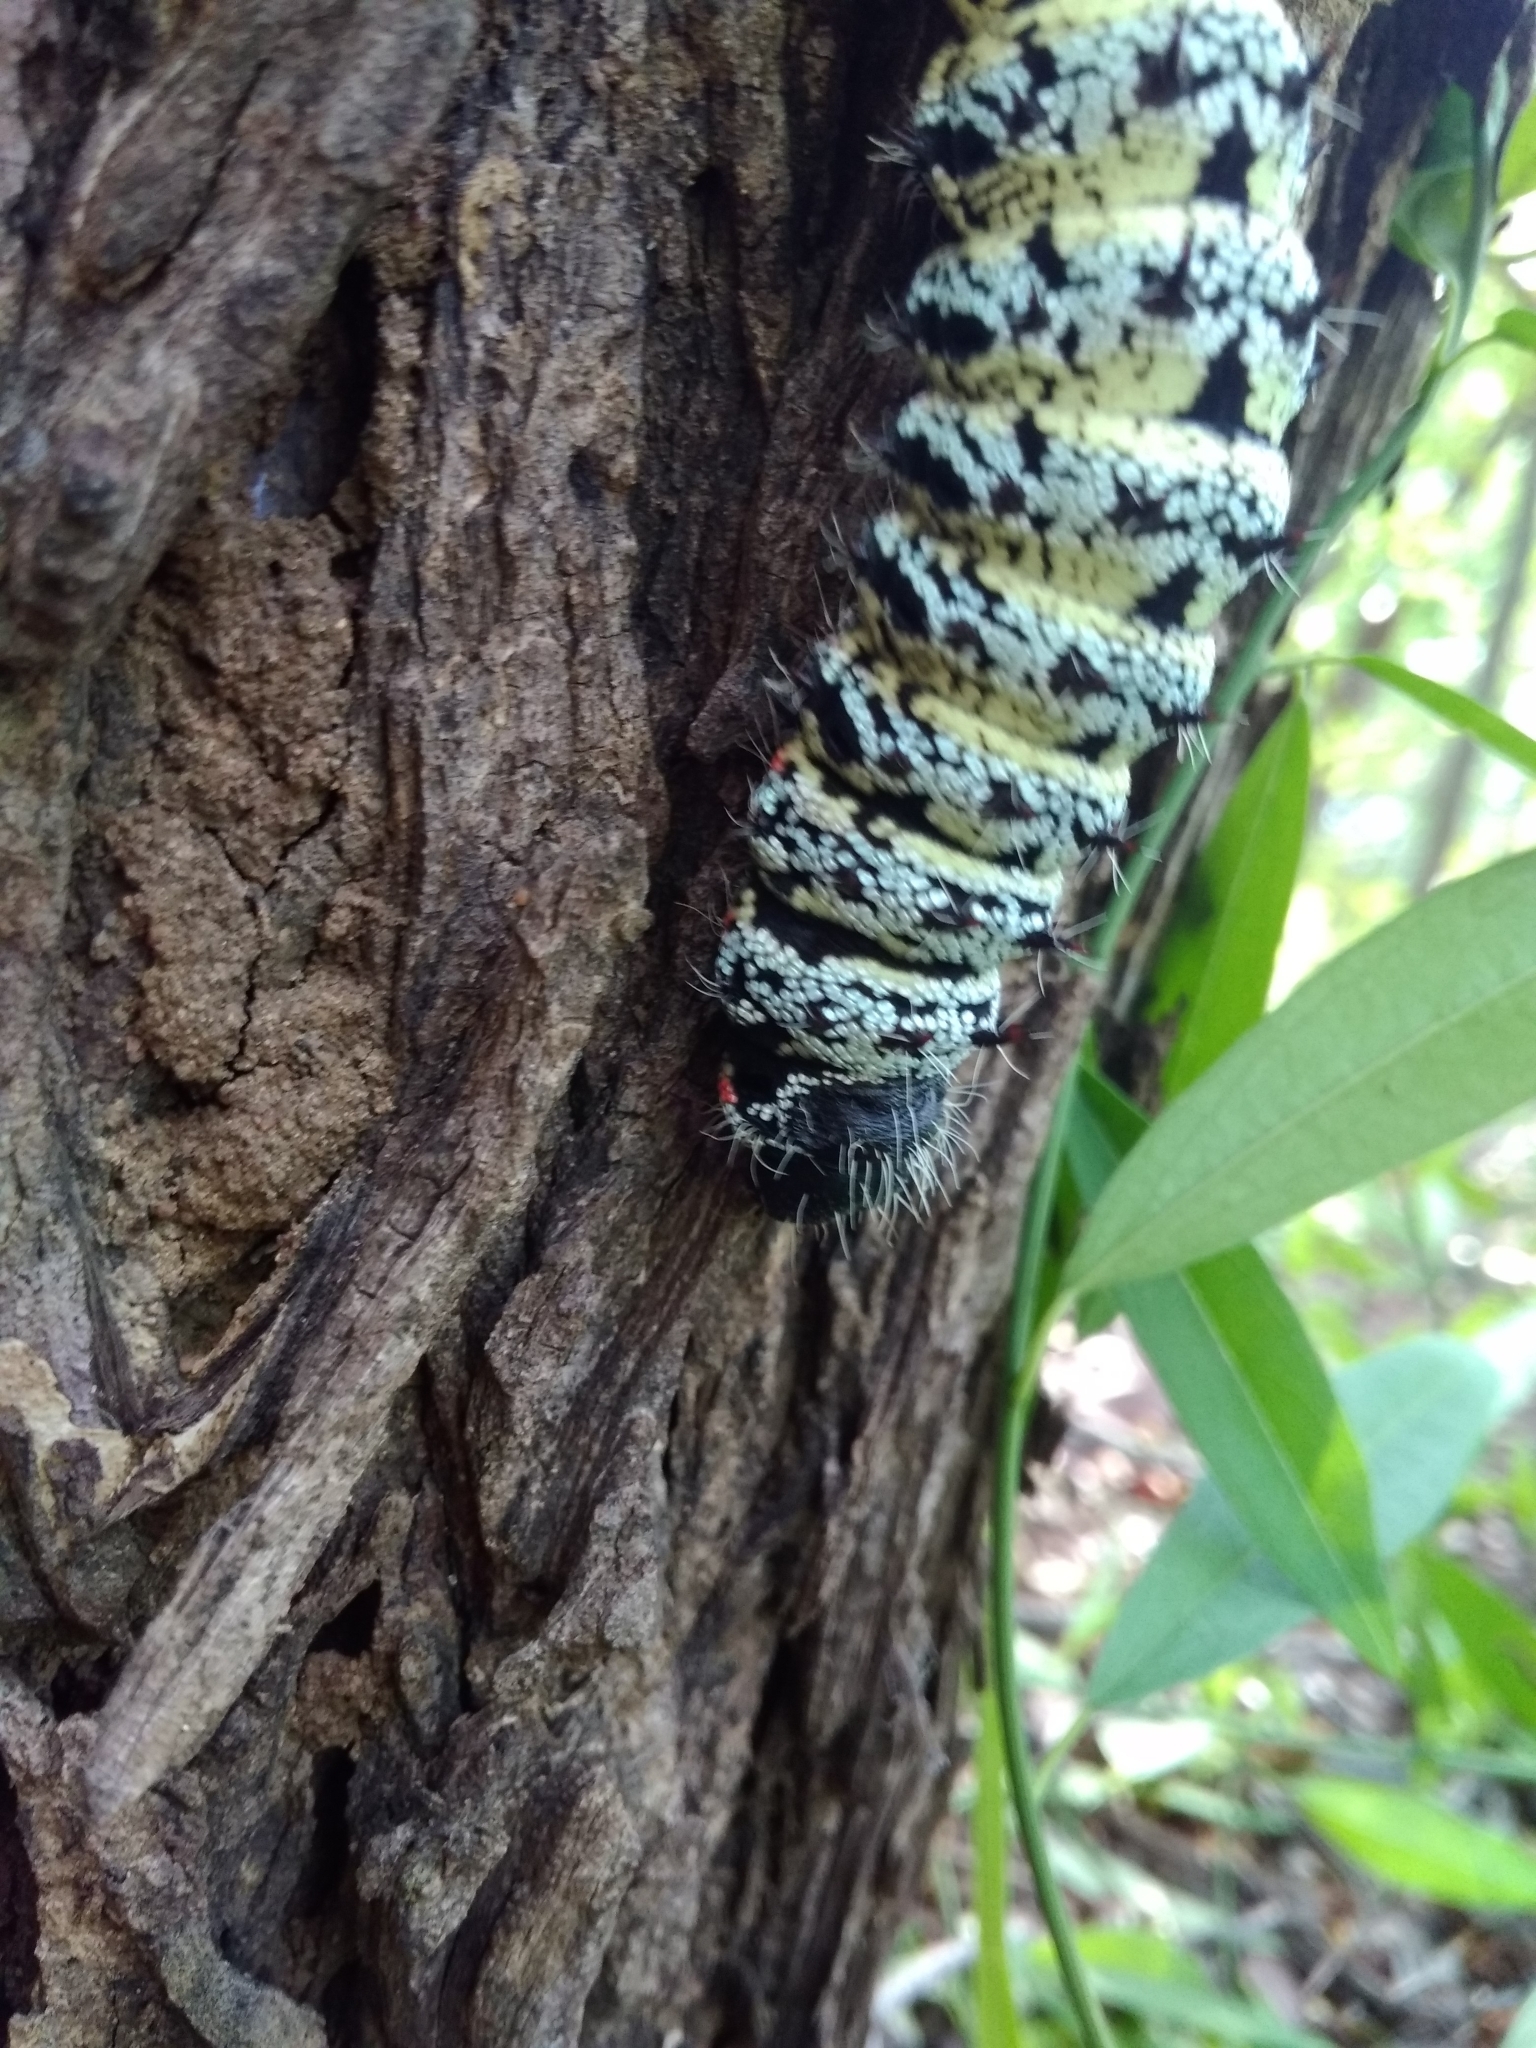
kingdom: Animalia
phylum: Arthropoda
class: Insecta
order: Lepidoptera
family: Saturniidae
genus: Gonimbrasia
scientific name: Gonimbrasia belina
